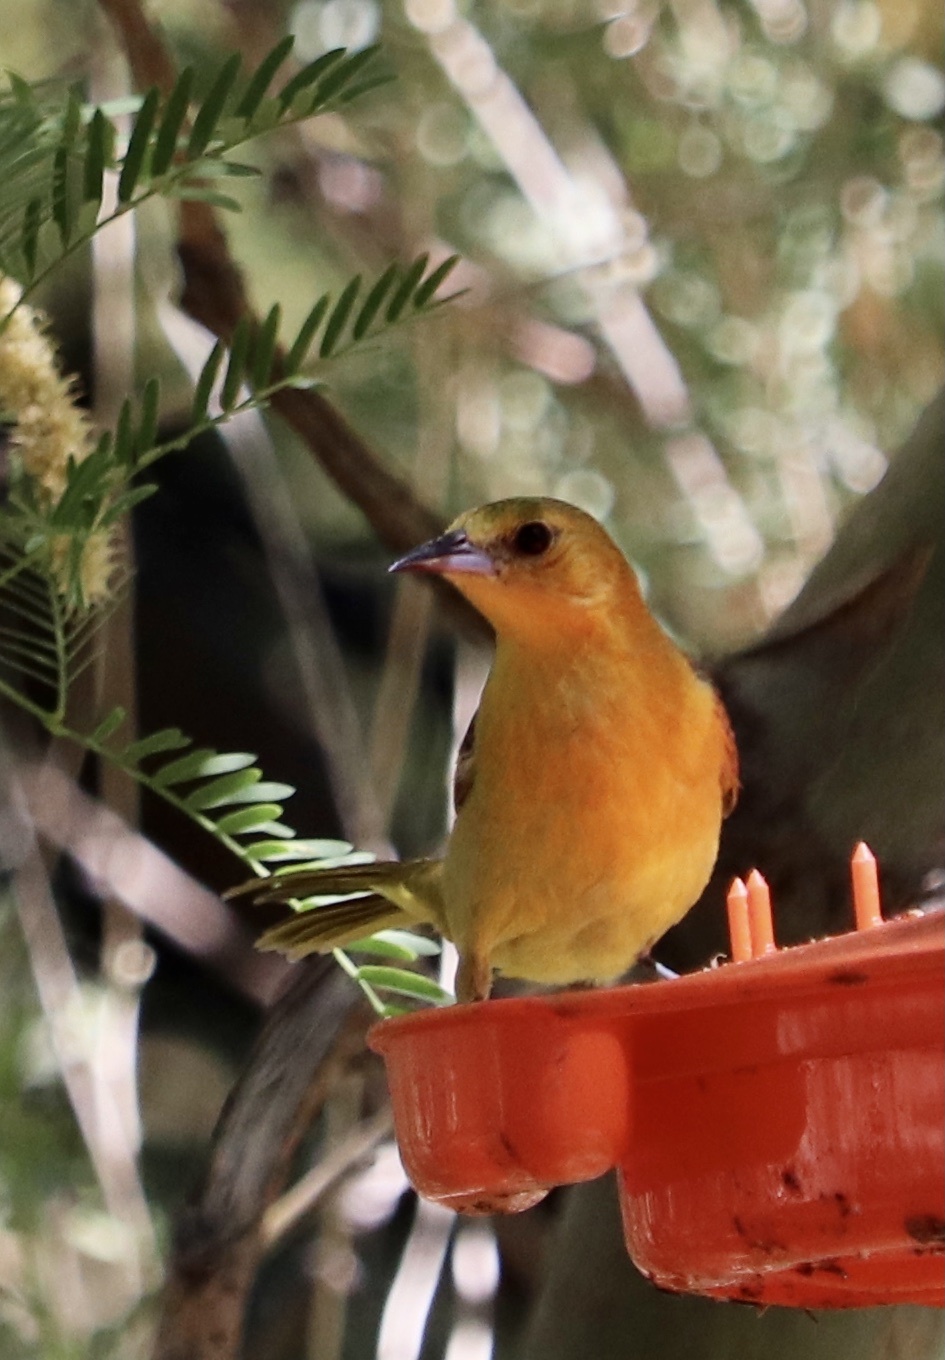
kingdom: Animalia
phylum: Chordata
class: Aves
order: Passeriformes
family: Icteridae
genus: Icterus
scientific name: Icterus cucullatus
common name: Hooded oriole
